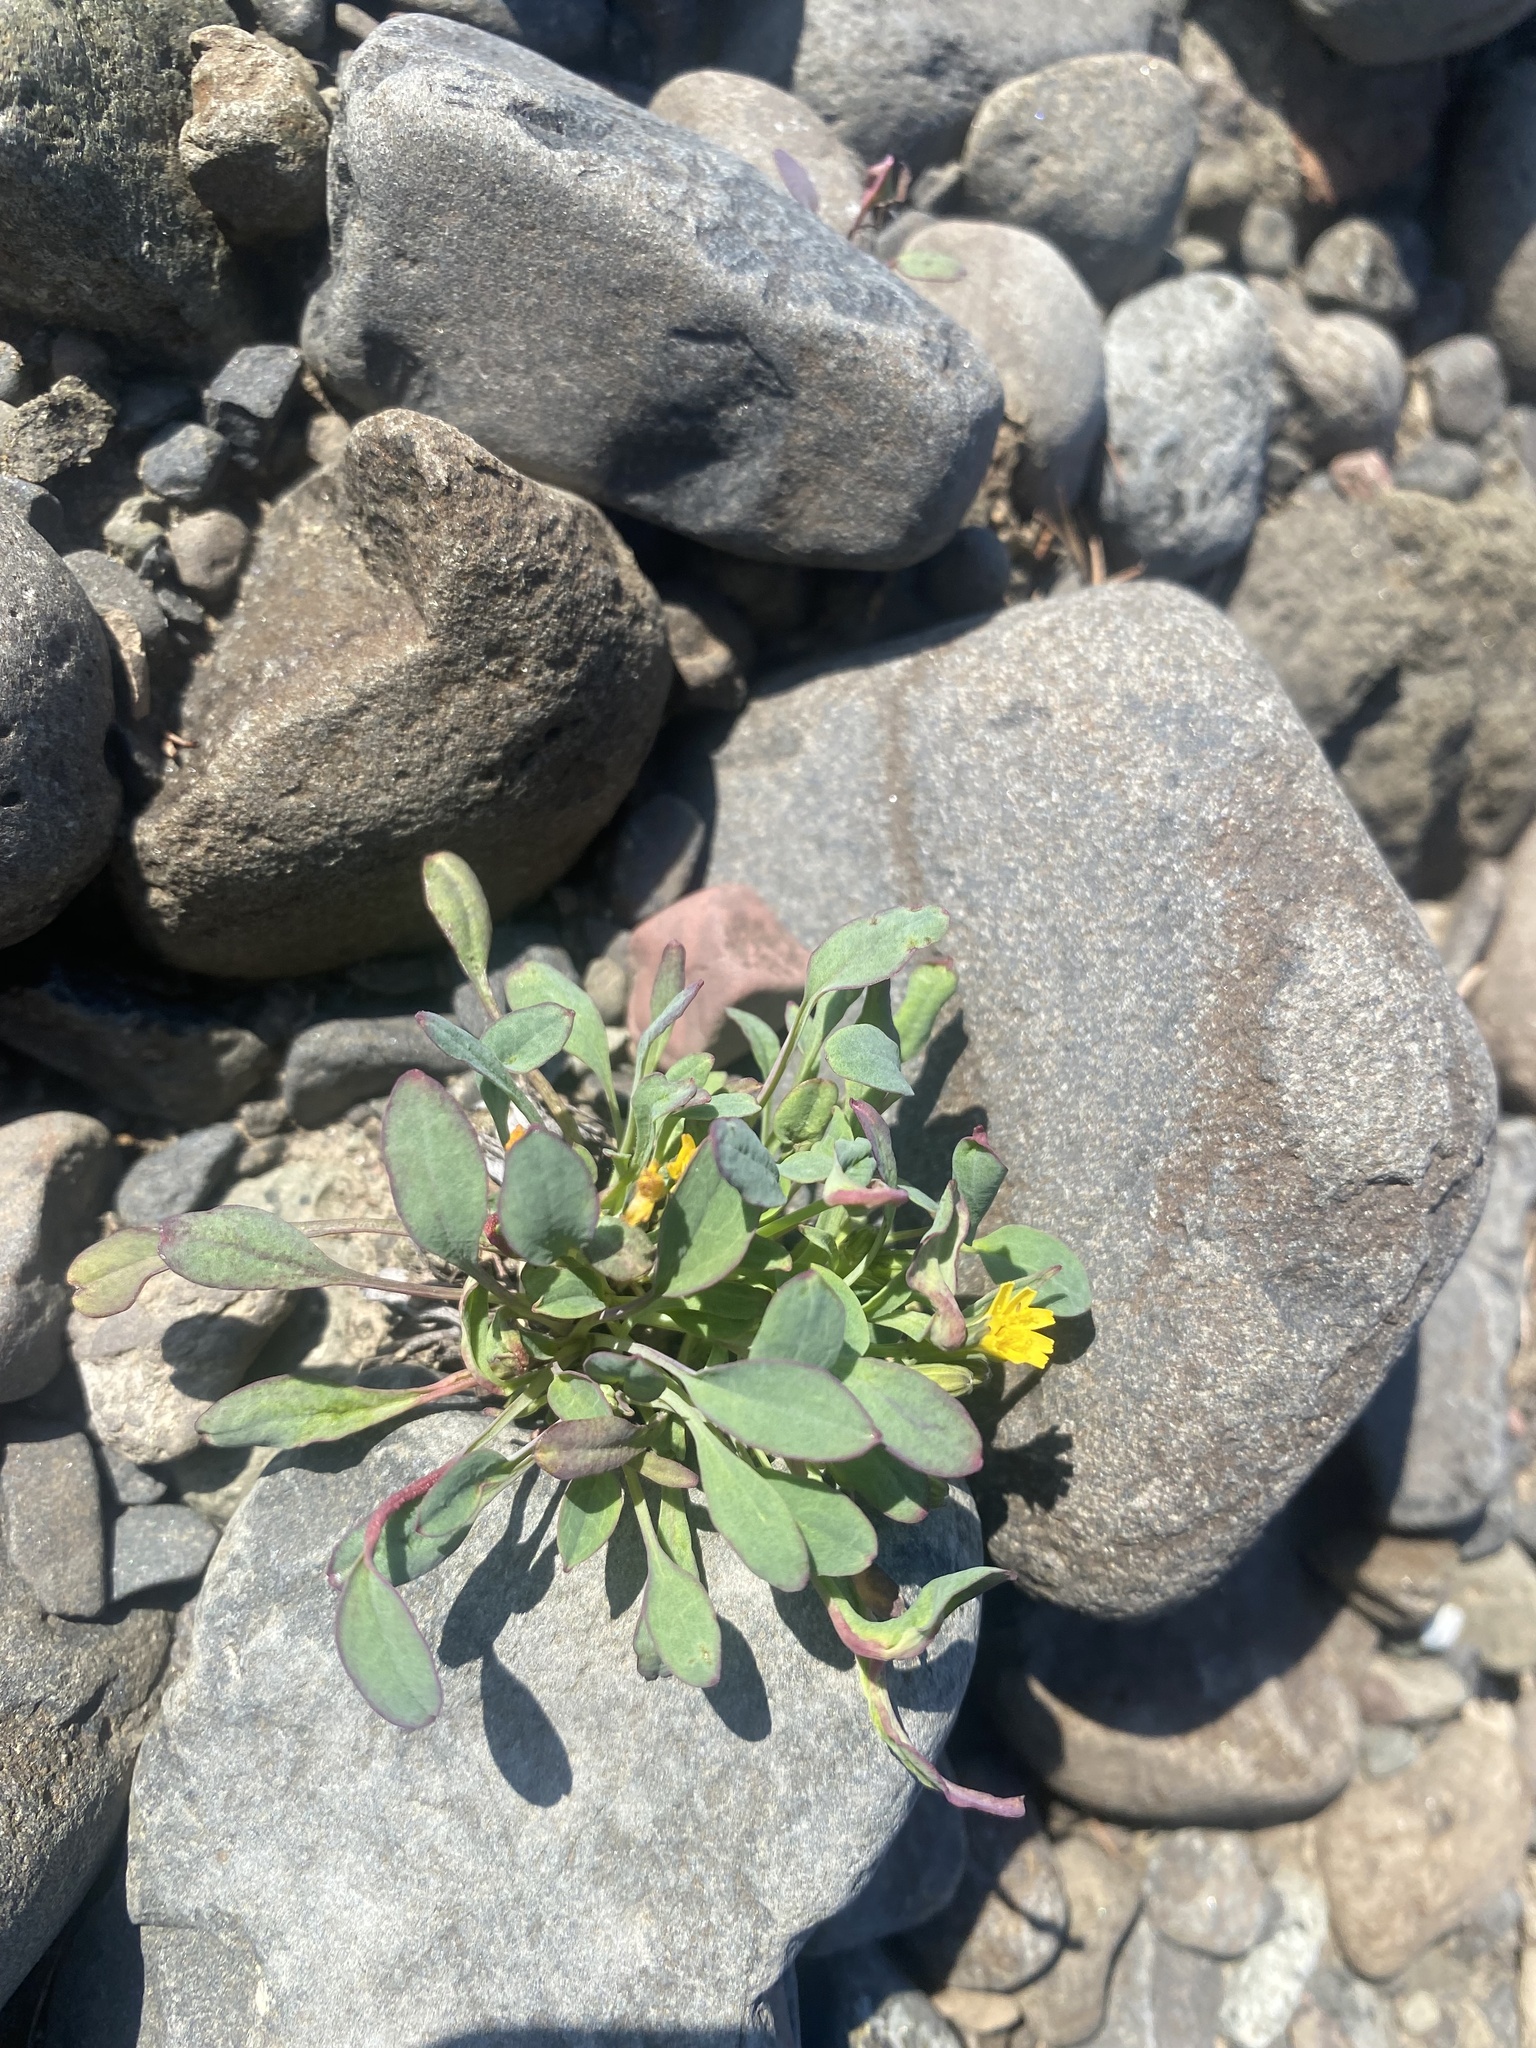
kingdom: Plantae
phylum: Tracheophyta
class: Magnoliopsida
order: Asterales
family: Asteraceae
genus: Askellia
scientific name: Askellia pygmaea
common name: Dwarf alpine hawksbeard
